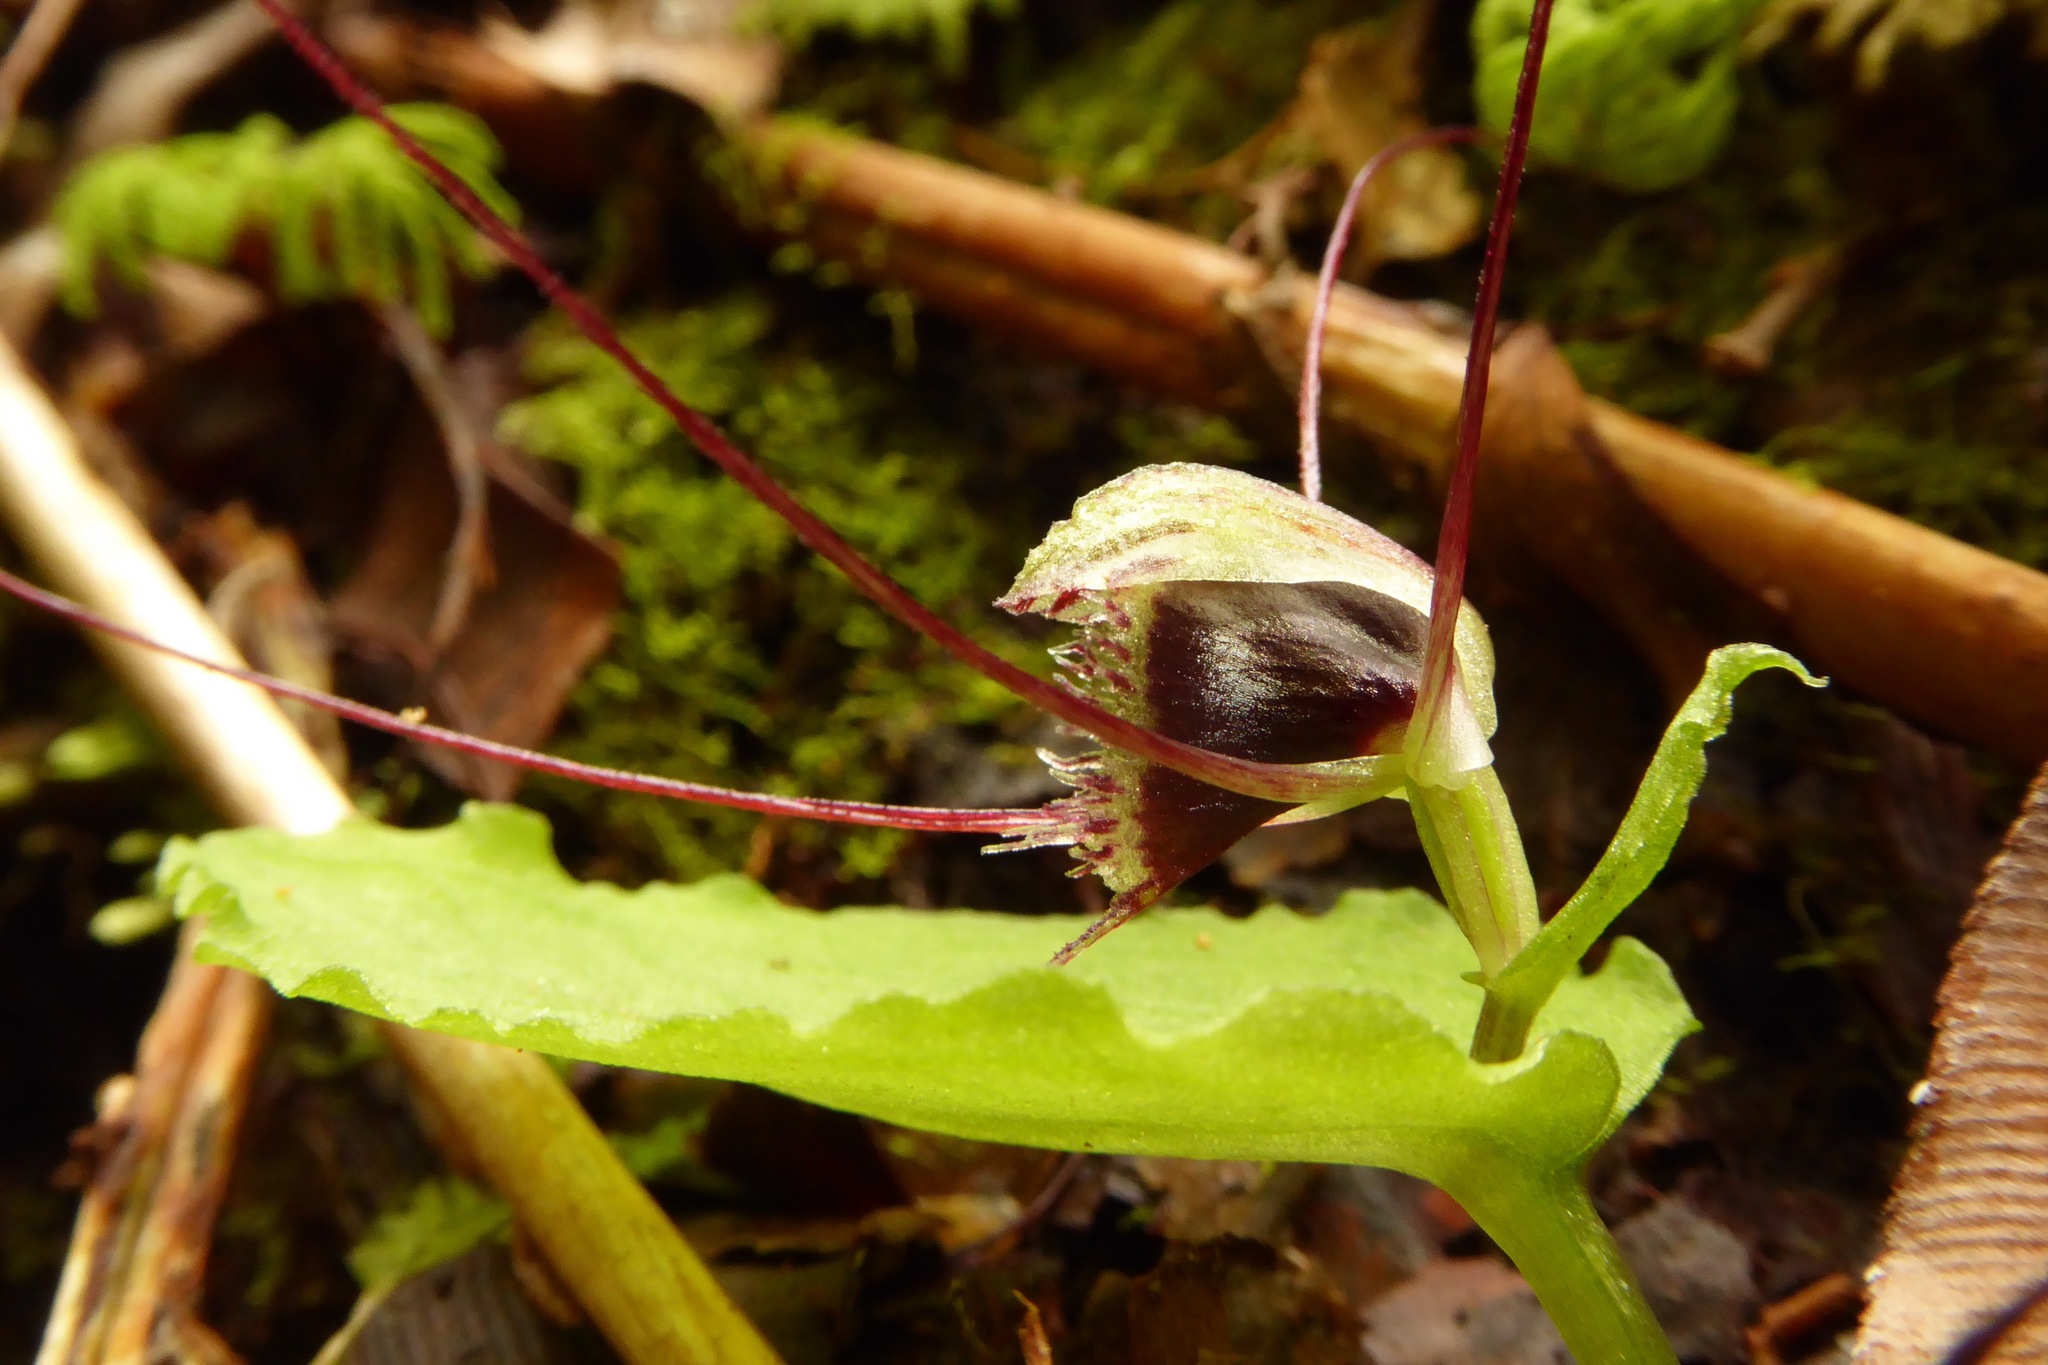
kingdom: Plantae
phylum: Tracheophyta
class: Liliopsida
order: Asparagales
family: Orchidaceae
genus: Corybas
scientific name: Corybas oblongus
